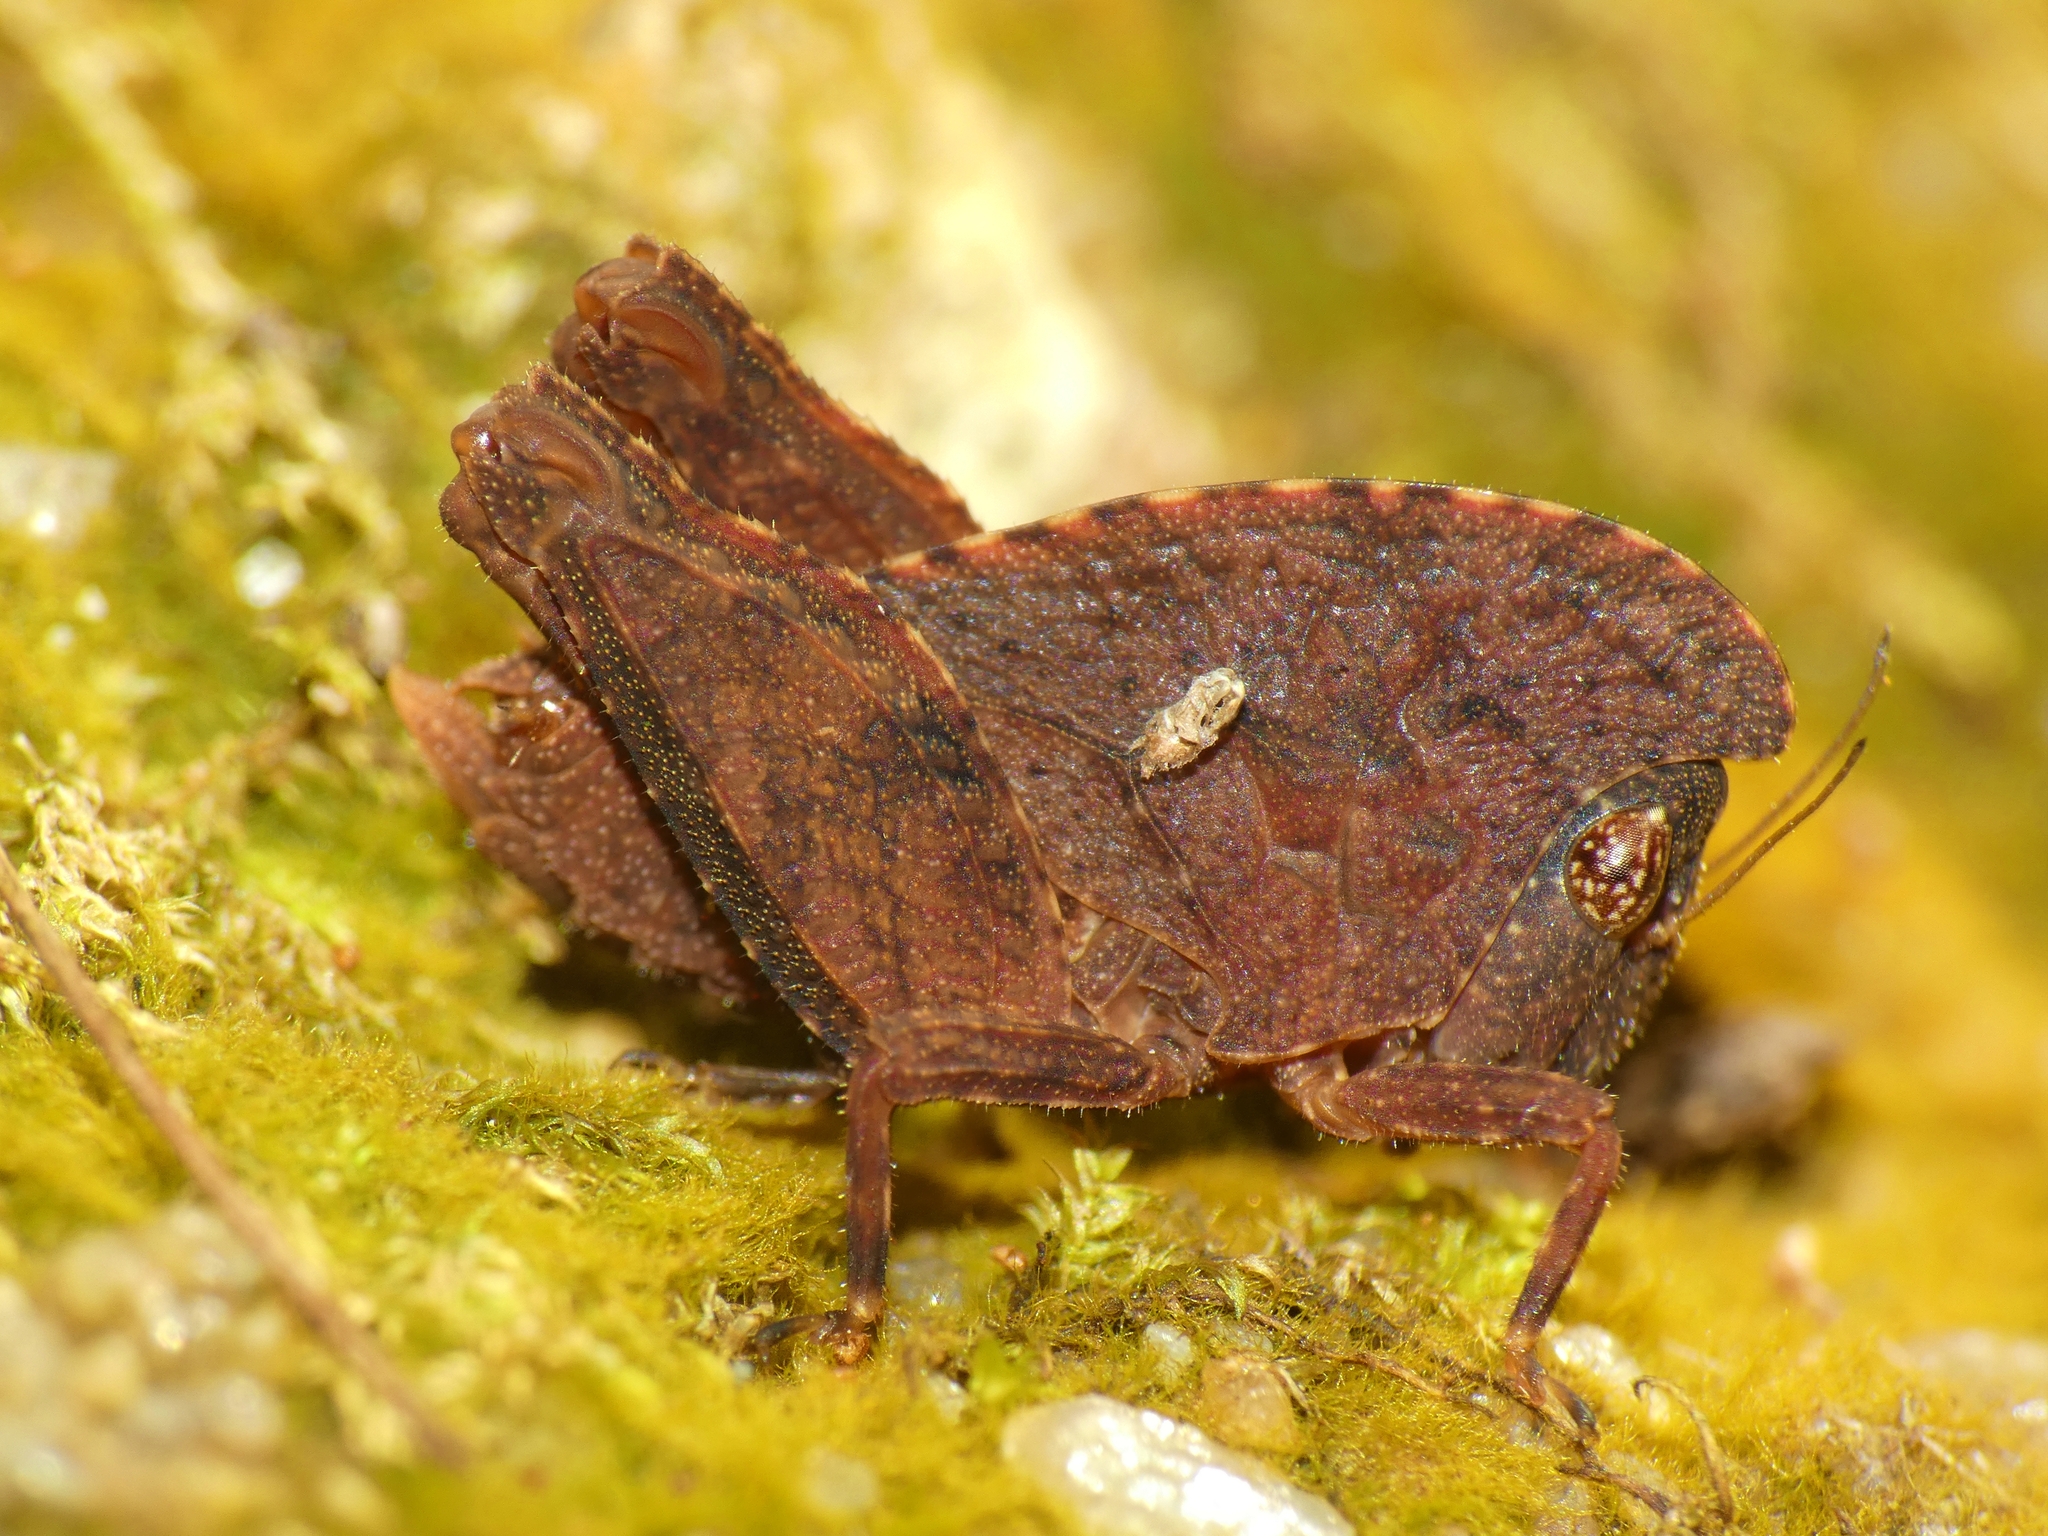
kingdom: Animalia
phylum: Arthropoda
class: Insecta
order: Orthoptera
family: Tetrigidae
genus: Selivinga
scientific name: Selivinga tribulata
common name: Tribulation helmed groundhopper
